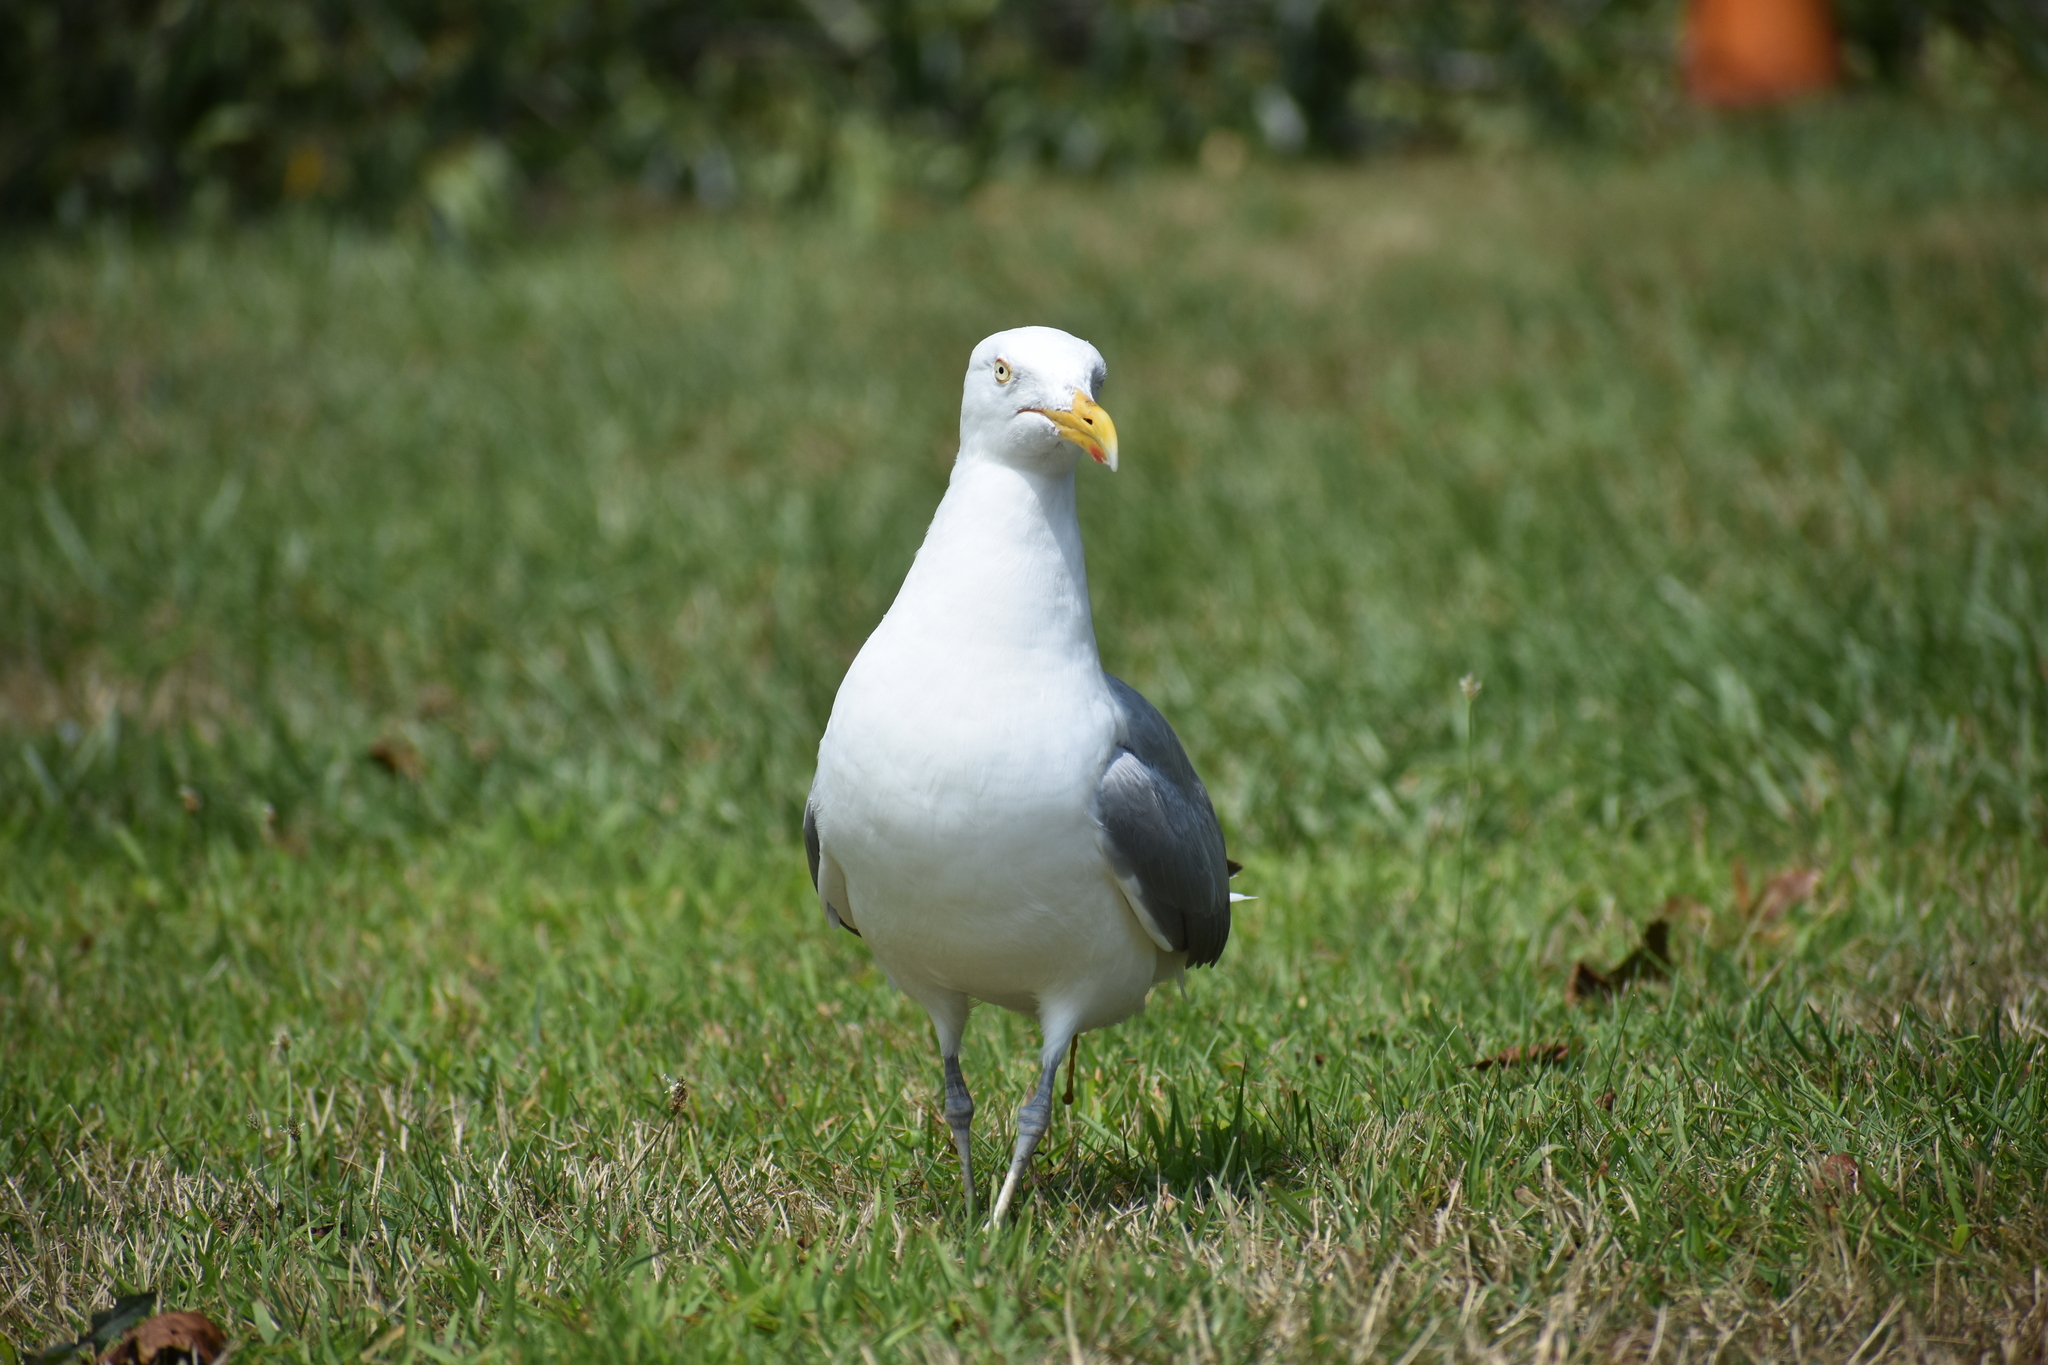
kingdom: Animalia
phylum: Chordata
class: Aves
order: Charadriiformes
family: Laridae
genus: Larus
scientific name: Larus argentatus
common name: Herring gull
